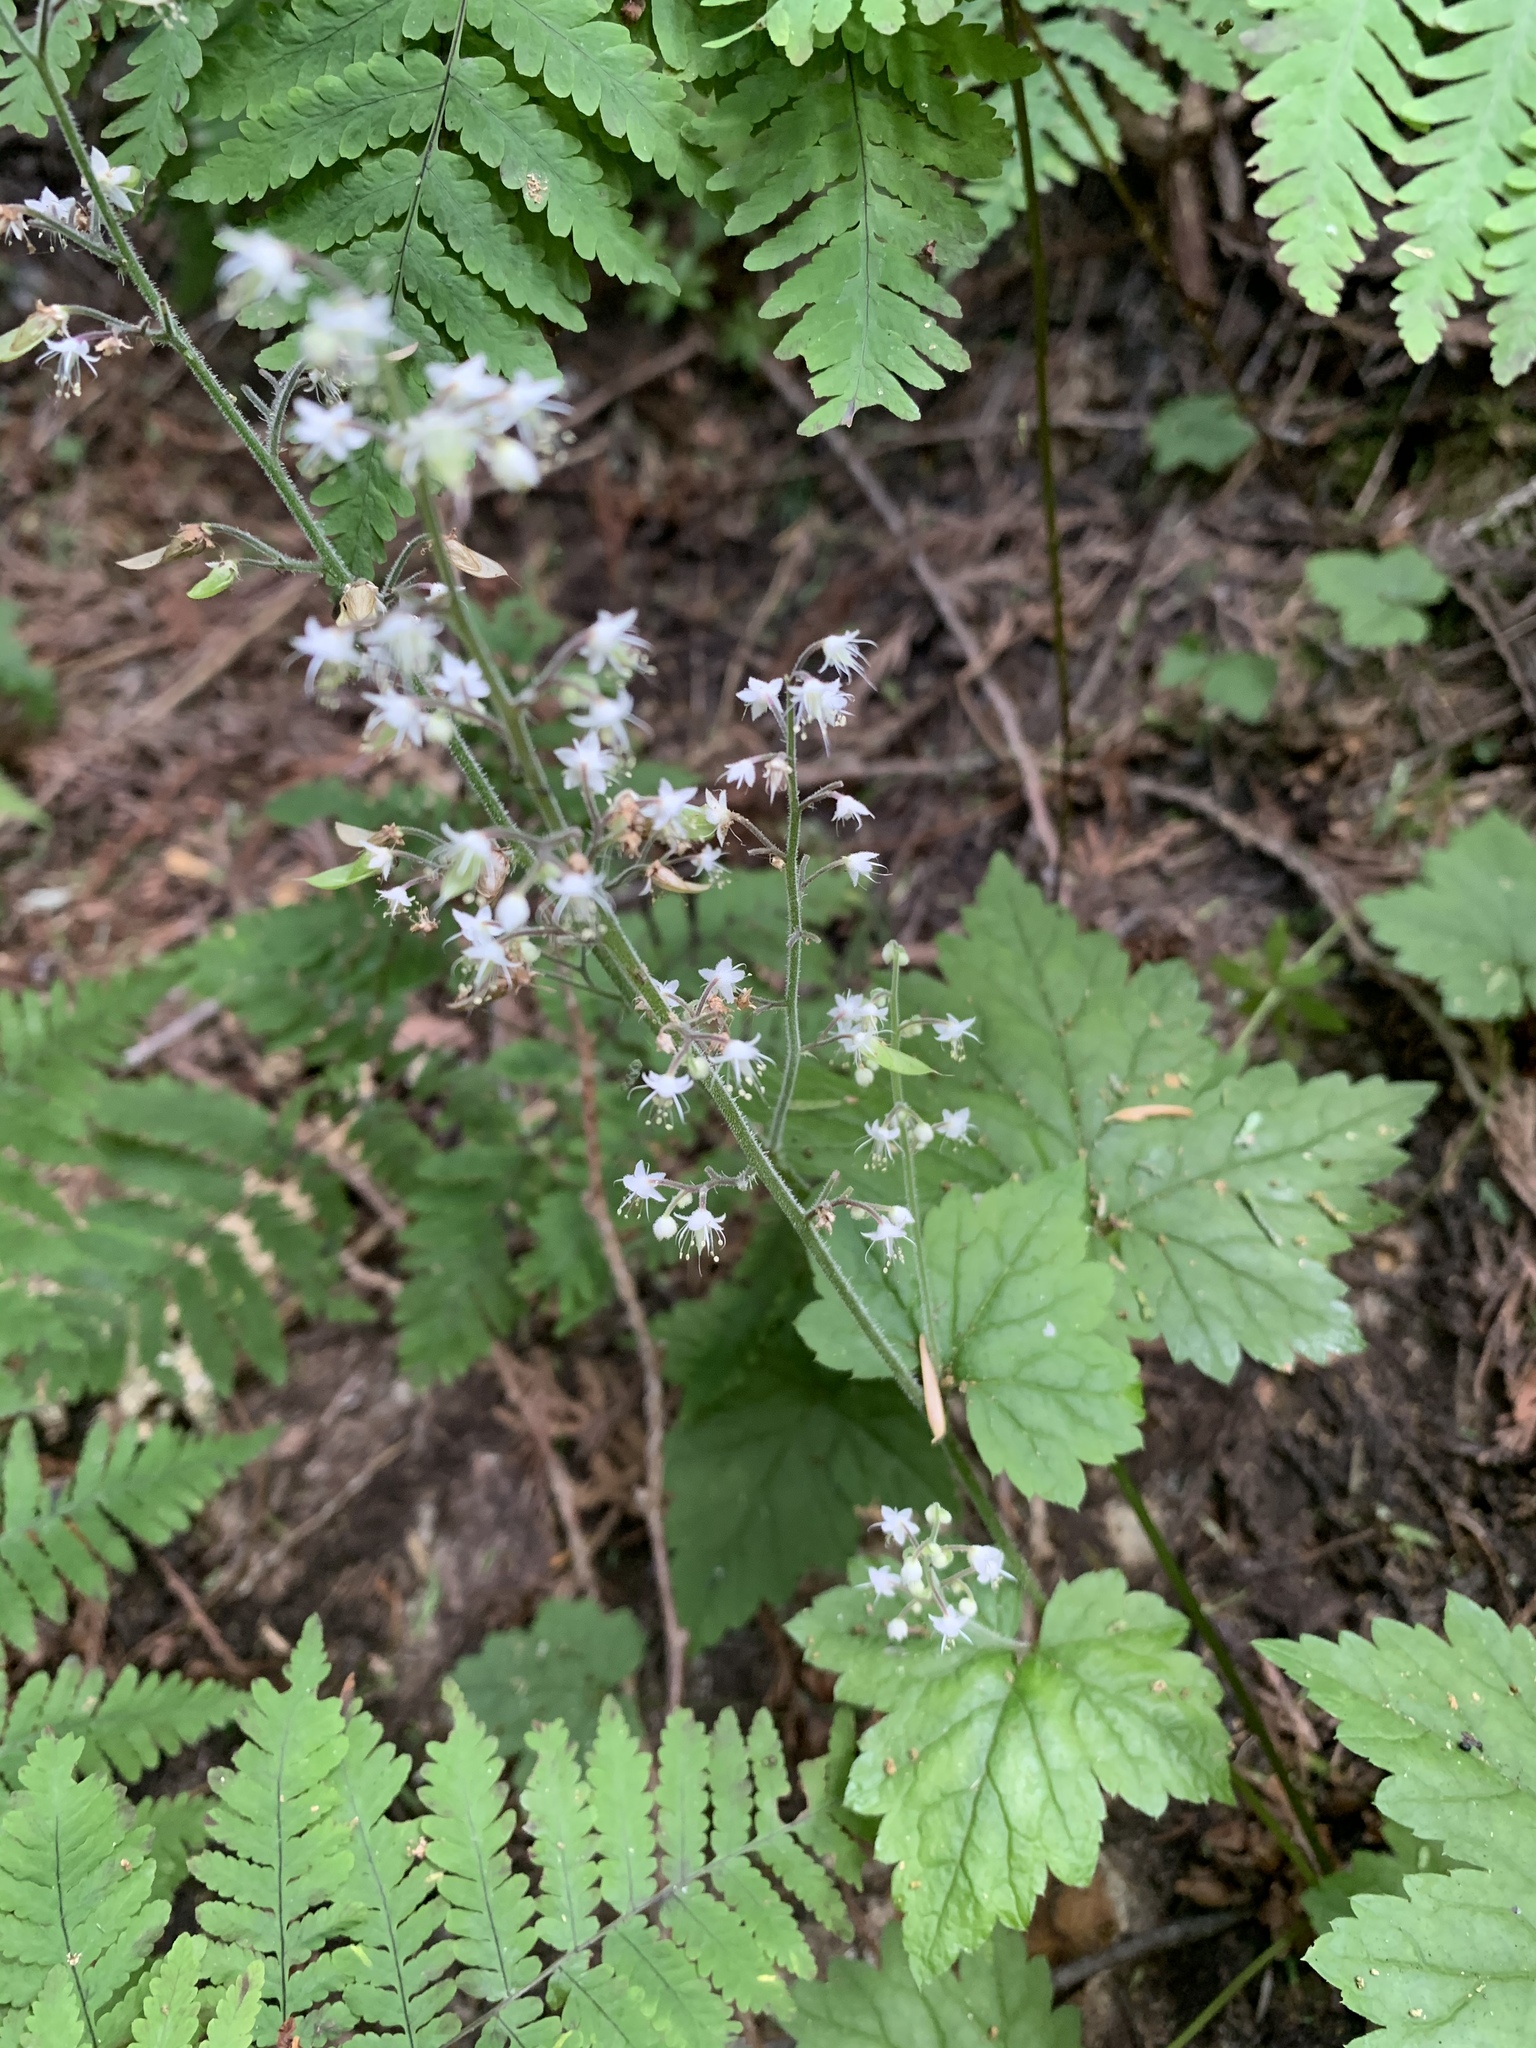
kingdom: Plantae
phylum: Tracheophyta
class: Magnoliopsida
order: Saxifragales
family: Saxifragaceae
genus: Tiarella
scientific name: Tiarella trifoliata
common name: Sugar-scoop
